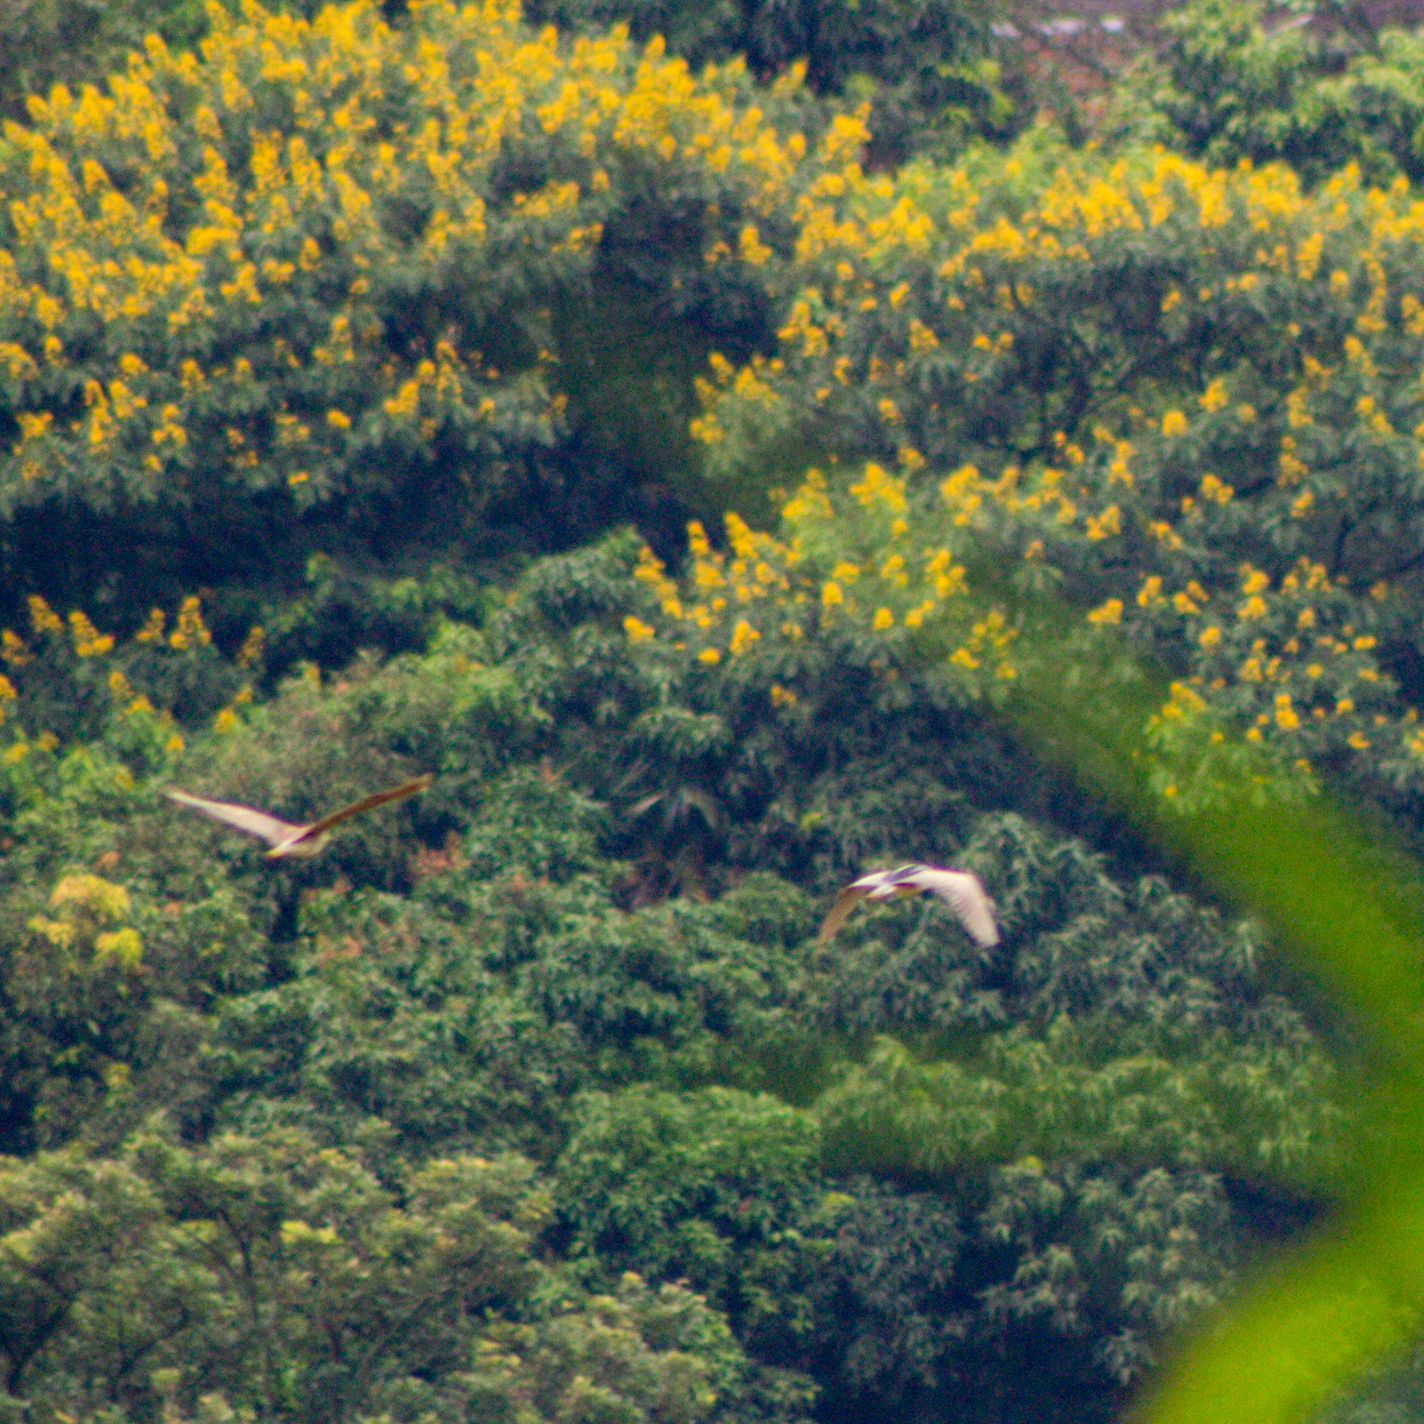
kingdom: Animalia
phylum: Chordata
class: Aves
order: Pelecaniformes
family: Ardeidae
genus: Nycticorax
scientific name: Nycticorax nycticorax
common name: Black-crowned night heron
